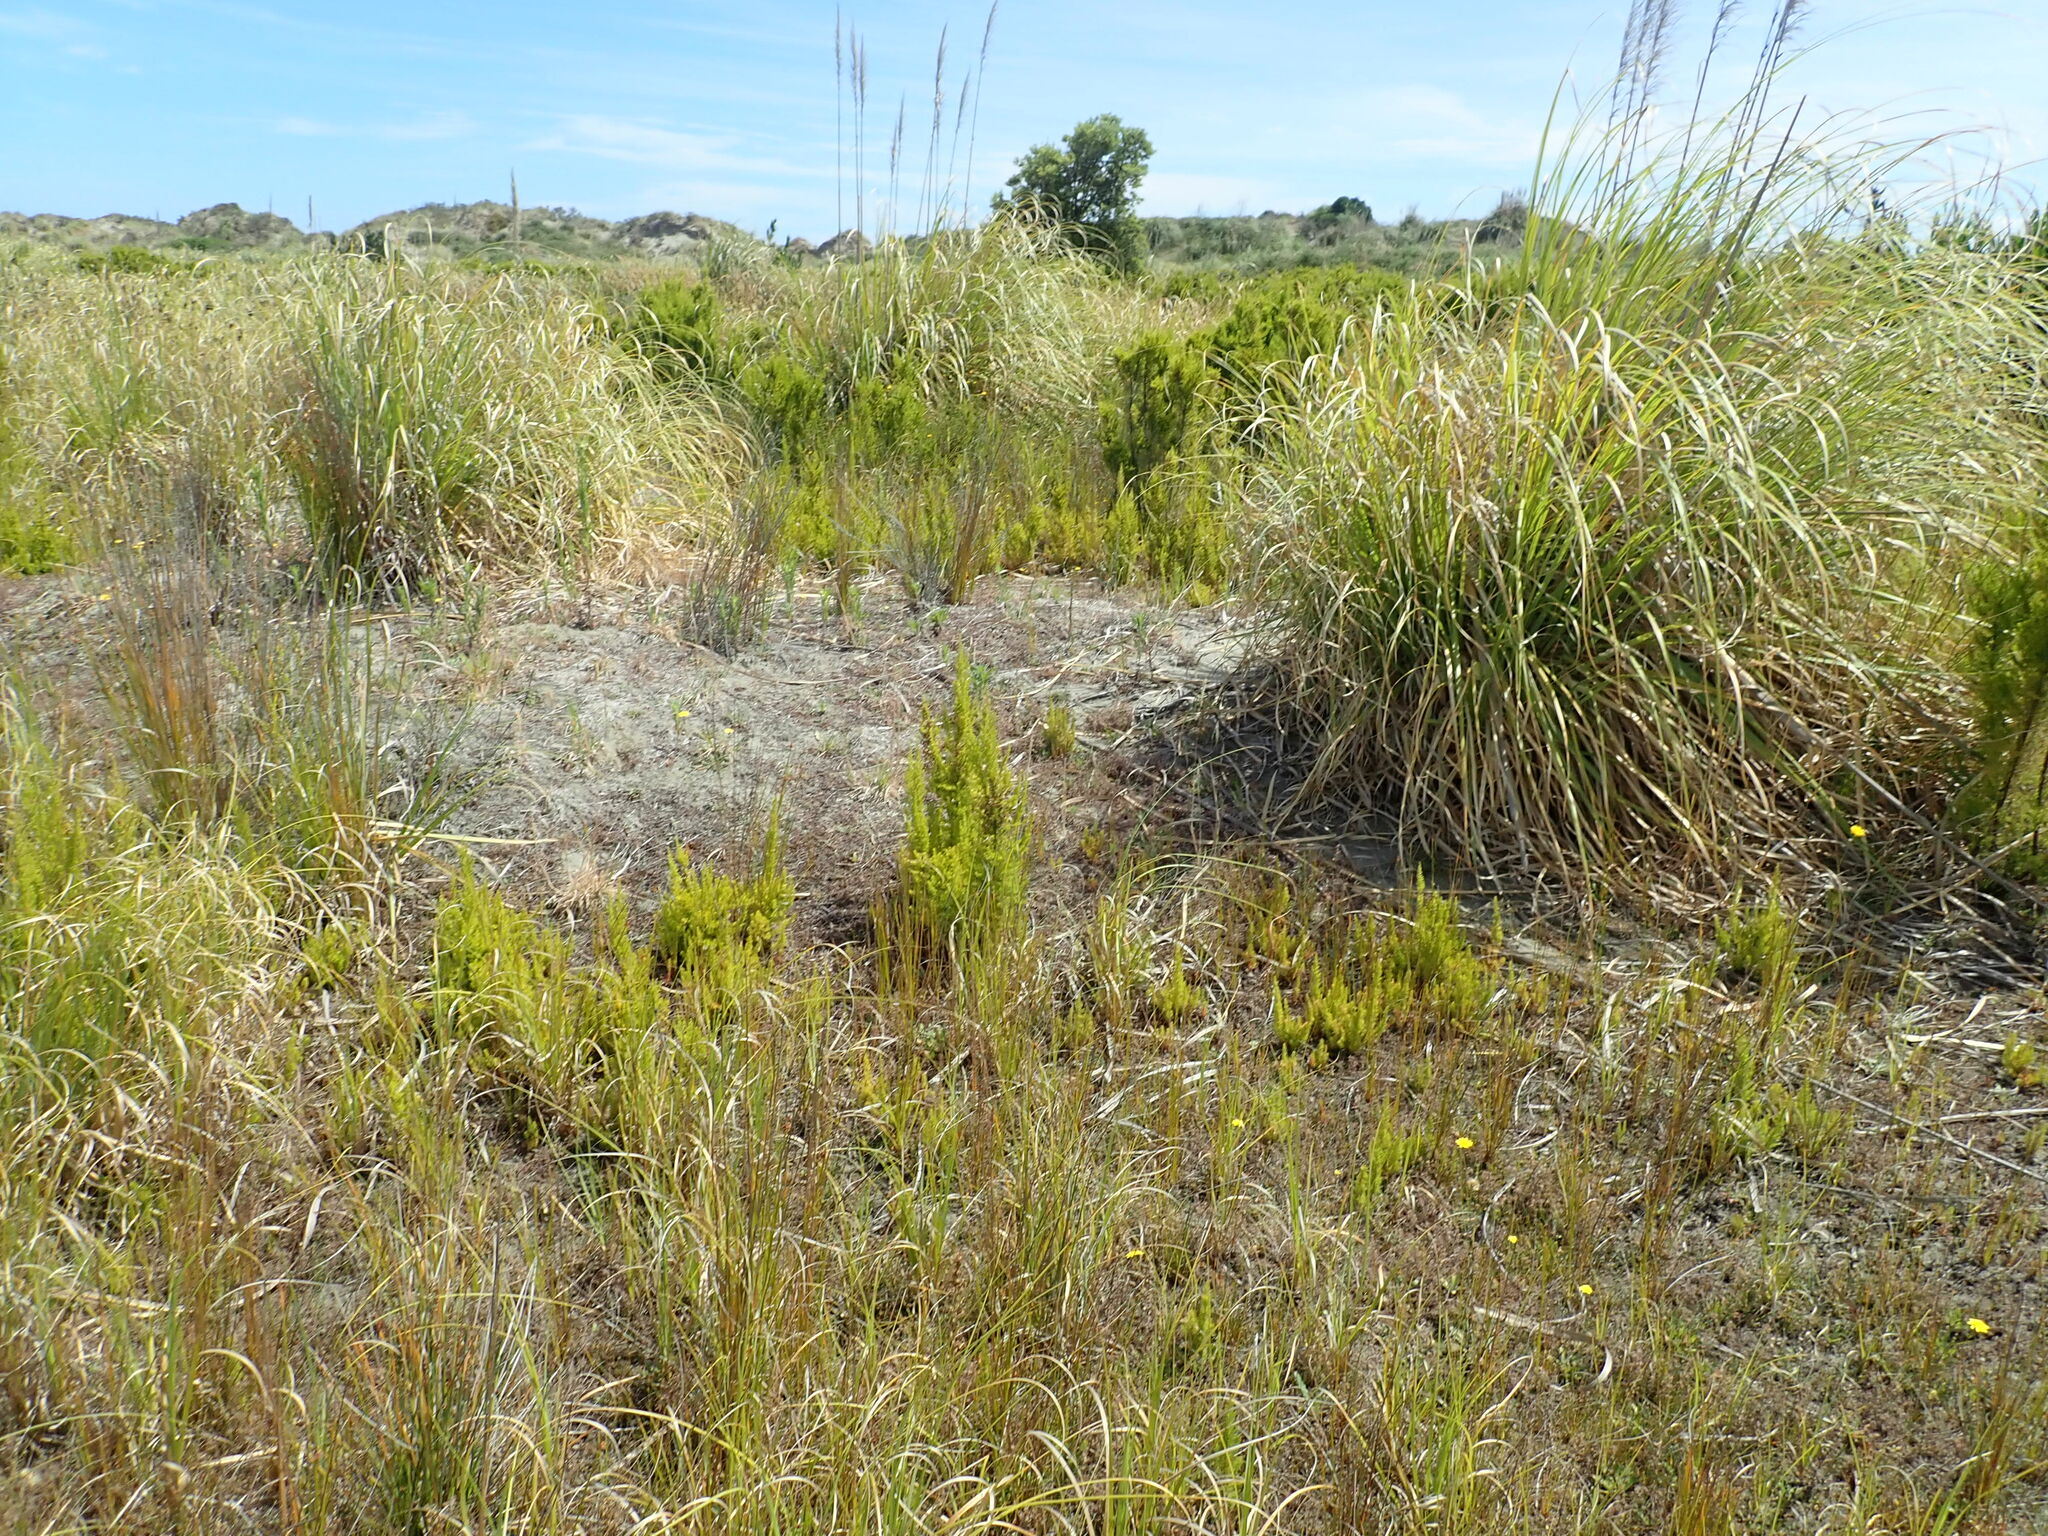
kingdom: Plantae
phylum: Tracheophyta
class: Magnoliopsida
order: Ericales
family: Ericaceae
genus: Erica
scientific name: Erica lusitanica
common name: Spanish heath
